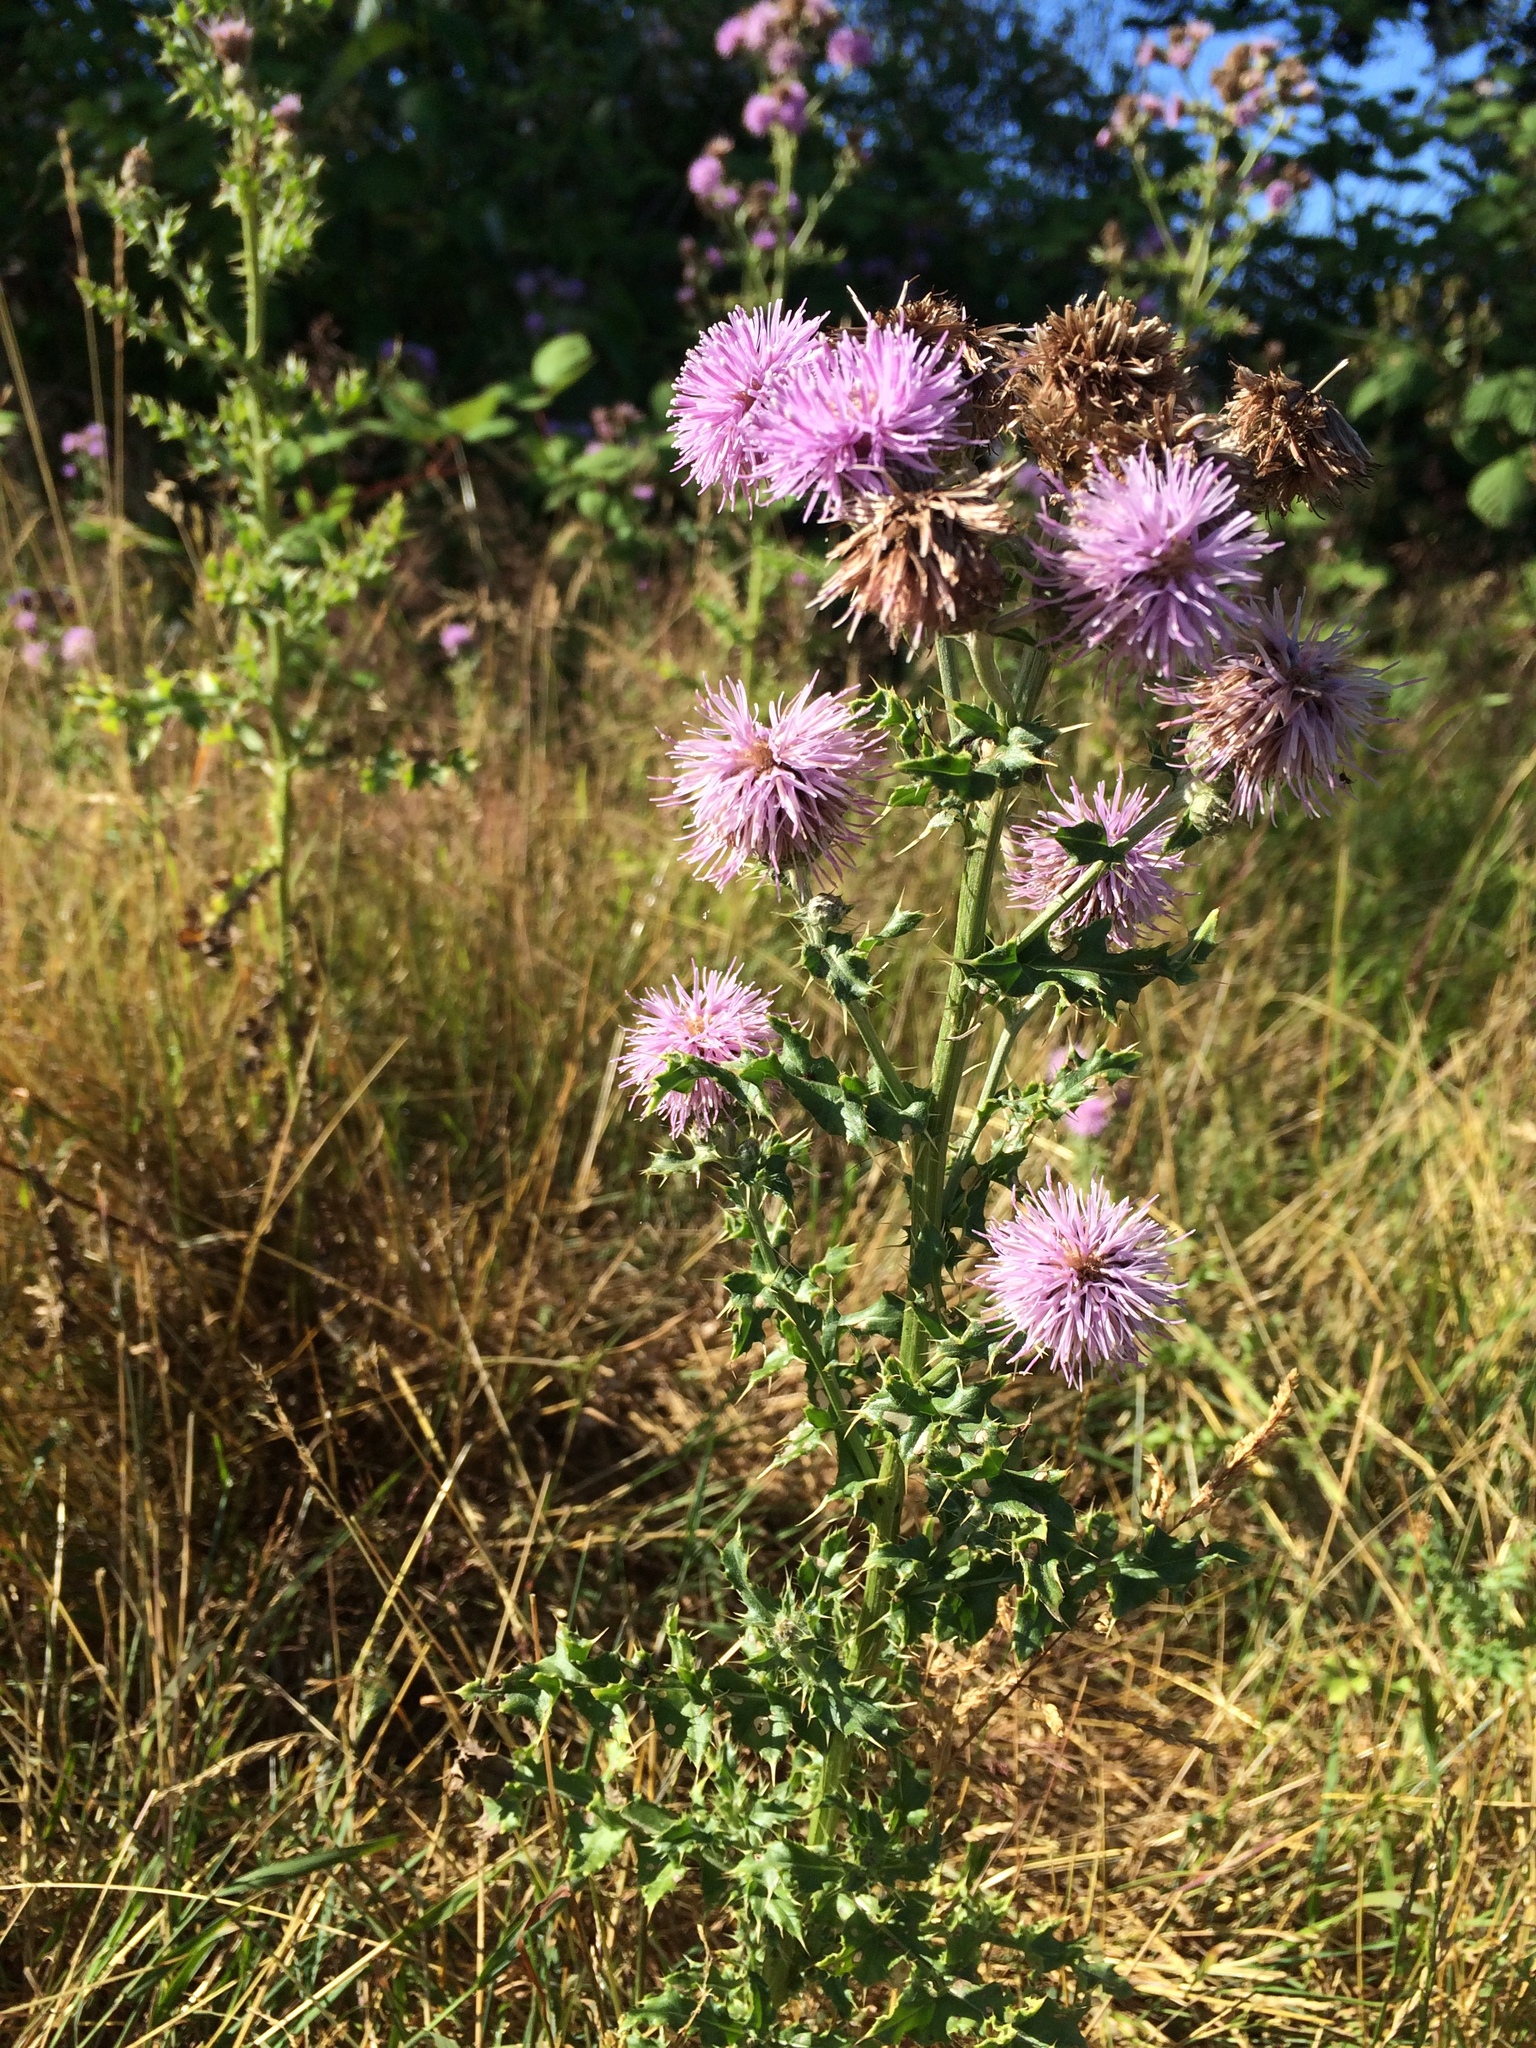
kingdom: Plantae
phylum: Tracheophyta
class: Magnoliopsida
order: Asterales
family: Asteraceae
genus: Cirsium
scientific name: Cirsium arvense
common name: Creeping thistle
